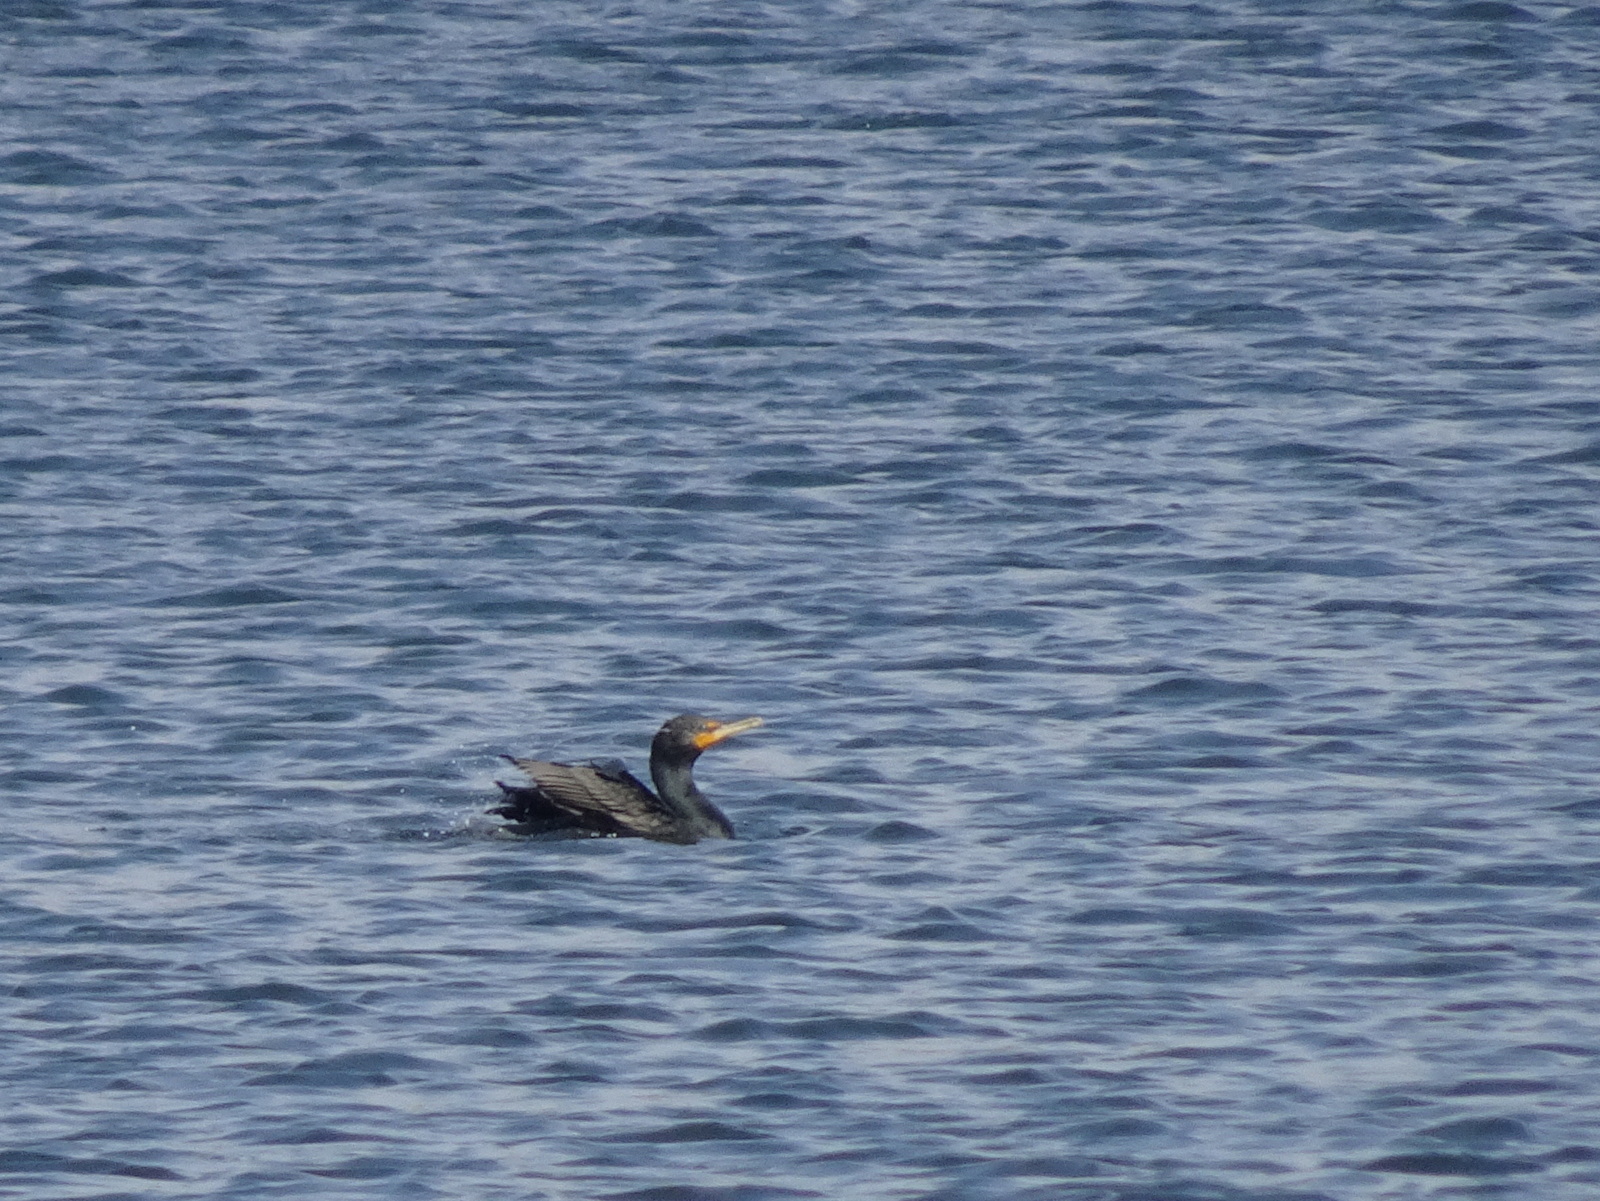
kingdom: Animalia
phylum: Chordata
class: Aves
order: Suliformes
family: Phalacrocoracidae
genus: Phalacrocorax
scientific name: Phalacrocorax auritus
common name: Double-crested cormorant
